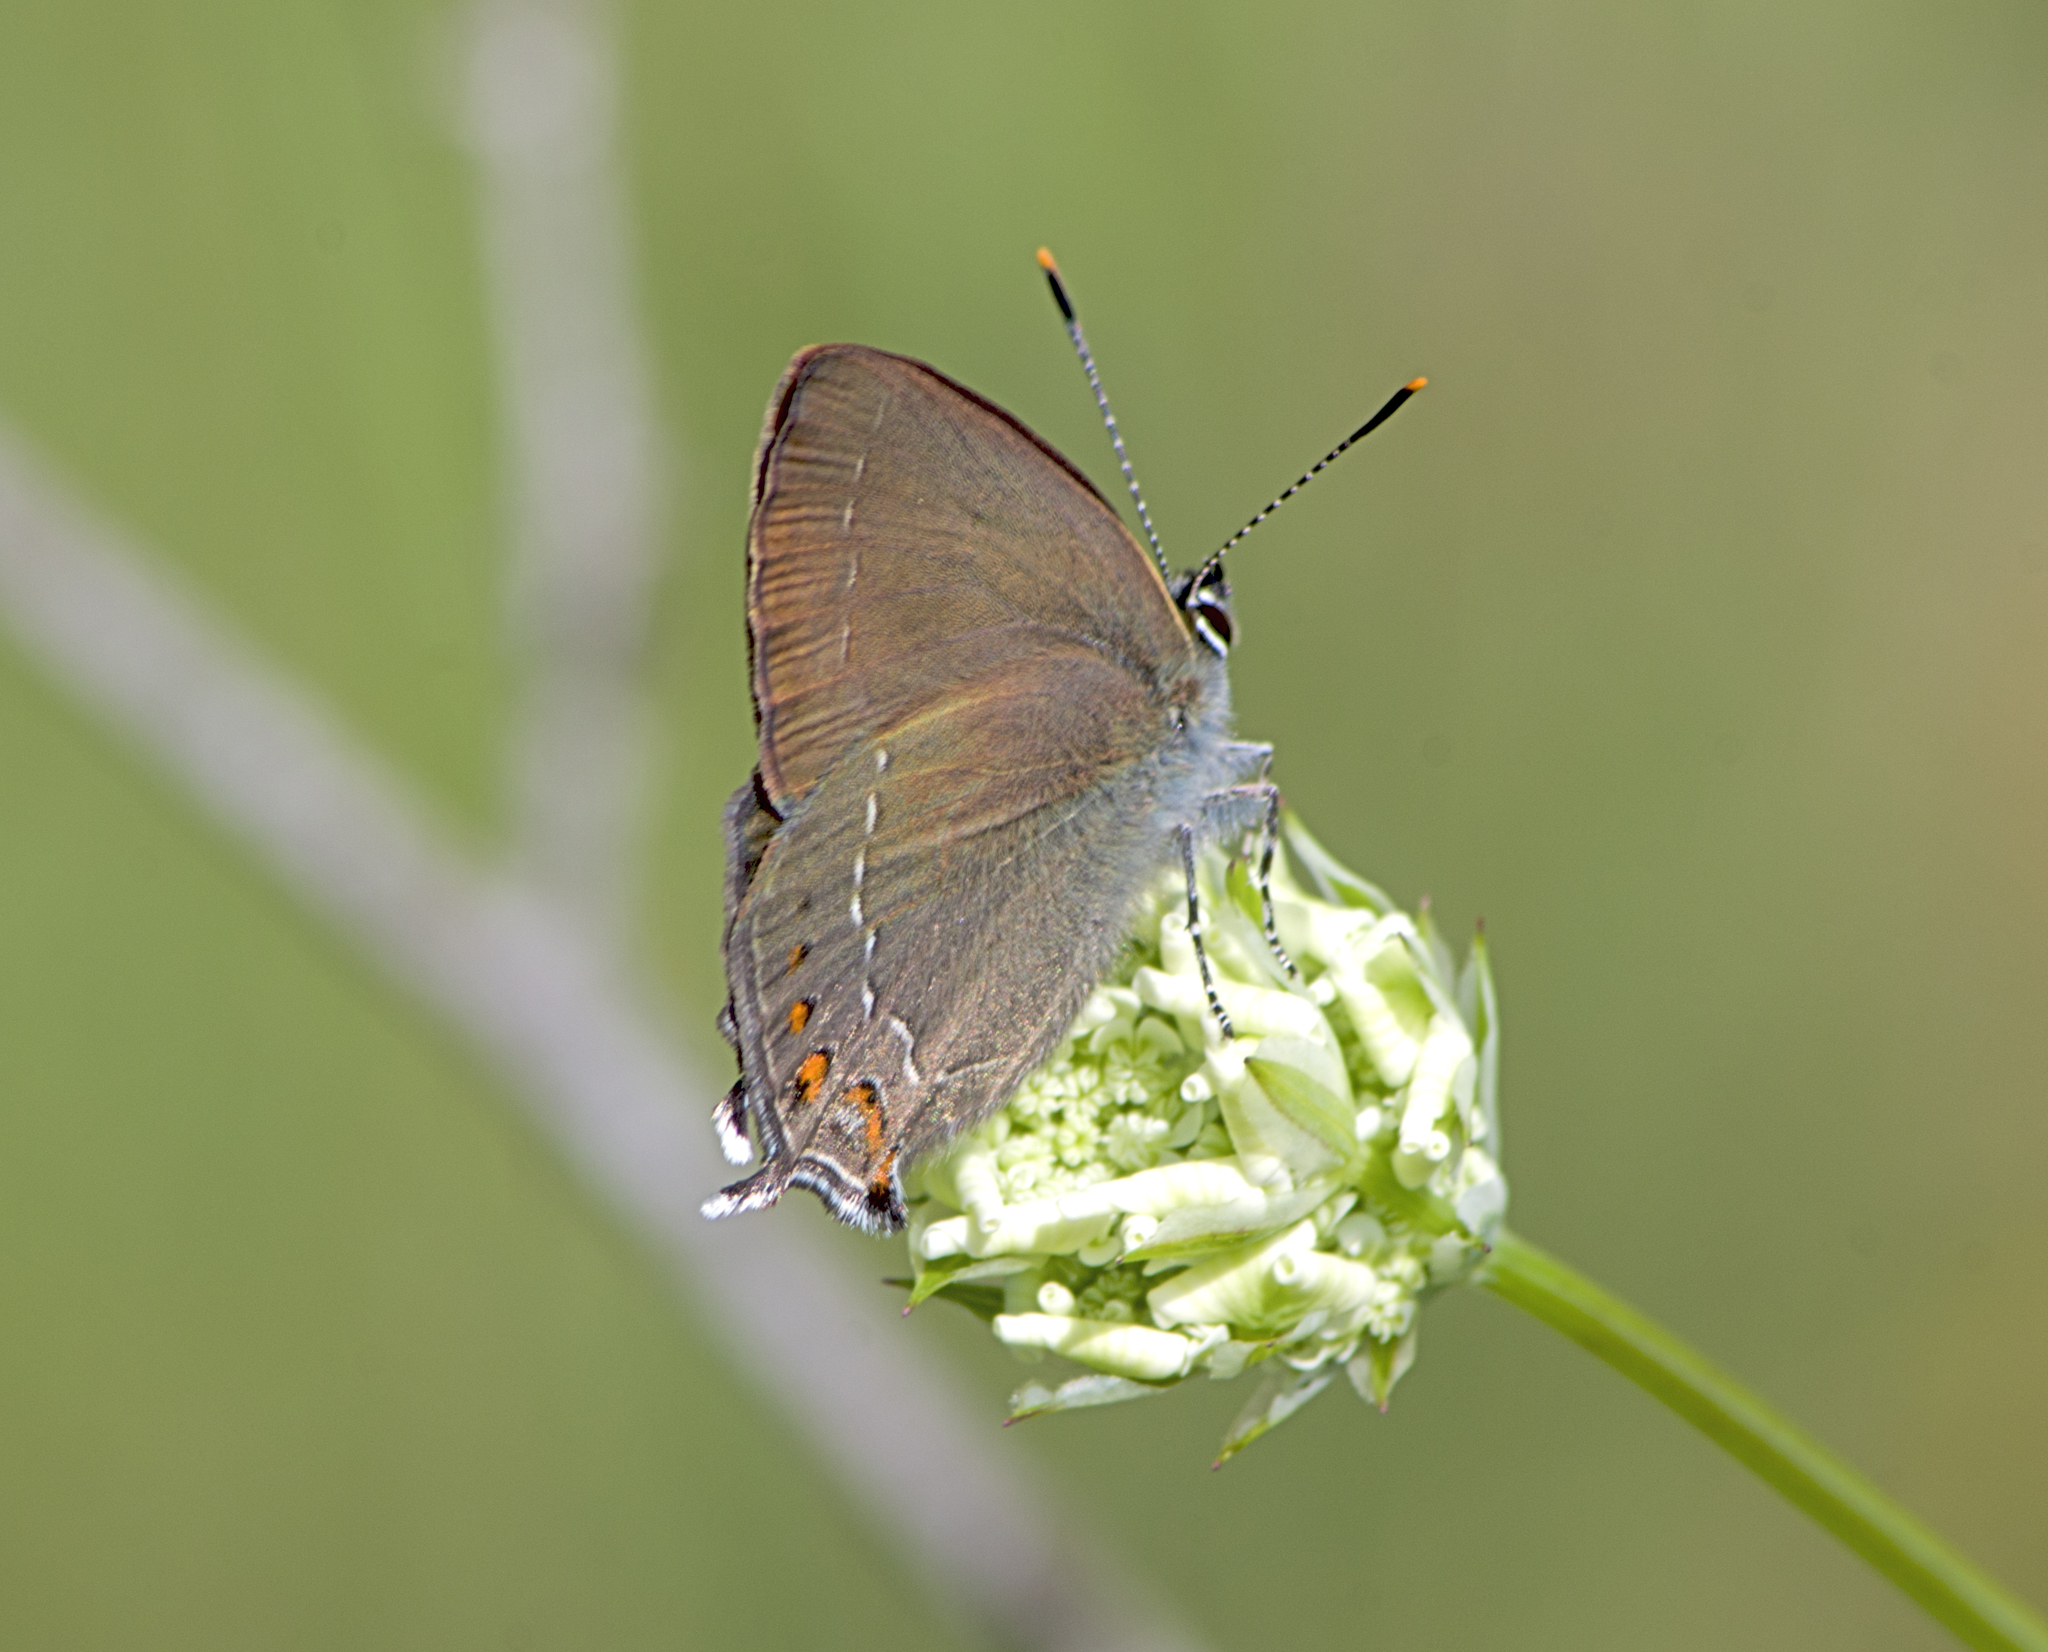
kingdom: Animalia
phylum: Arthropoda
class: Insecta
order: Lepidoptera
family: Lycaenidae
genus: Nordmannia
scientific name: Nordmannia ilicis
